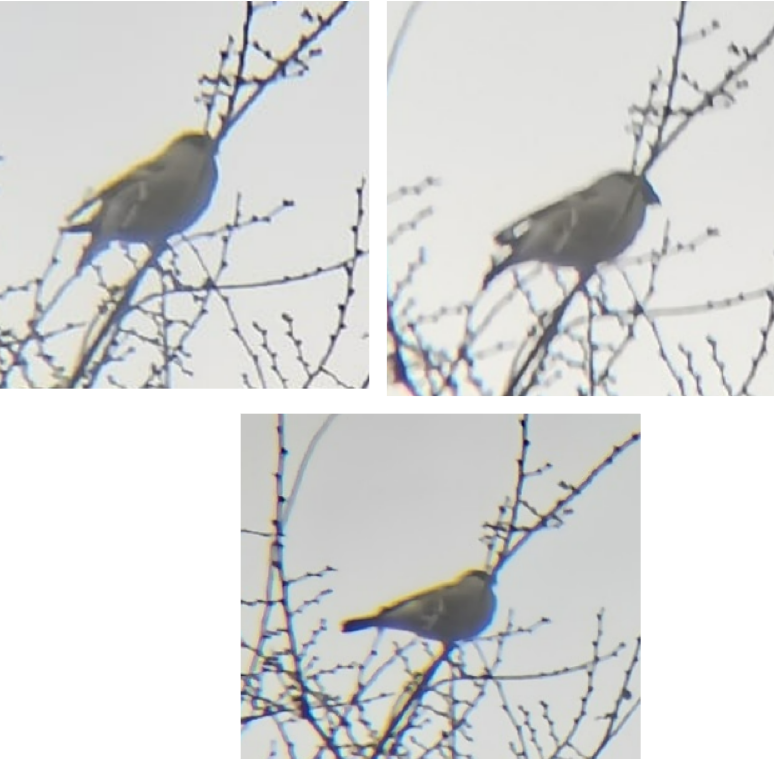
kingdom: Animalia
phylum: Chordata
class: Aves
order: Passeriformes
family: Fringillidae
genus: Pyrrhula
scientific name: Pyrrhula pyrrhula
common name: Eurasian bullfinch
